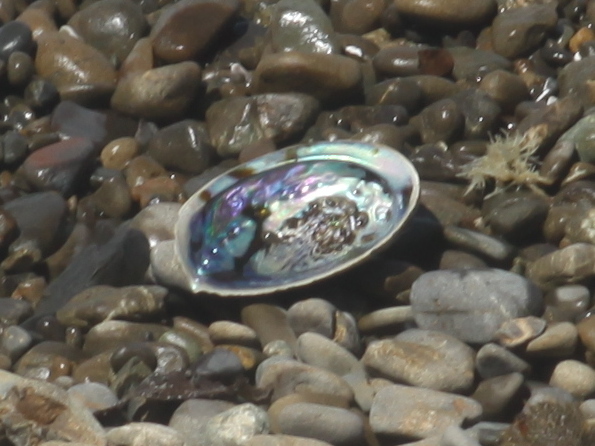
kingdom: Animalia
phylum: Mollusca
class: Gastropoda
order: Lepetellida
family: Haliotidae
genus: Haliotis
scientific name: Haliotis iris
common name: Abalone
